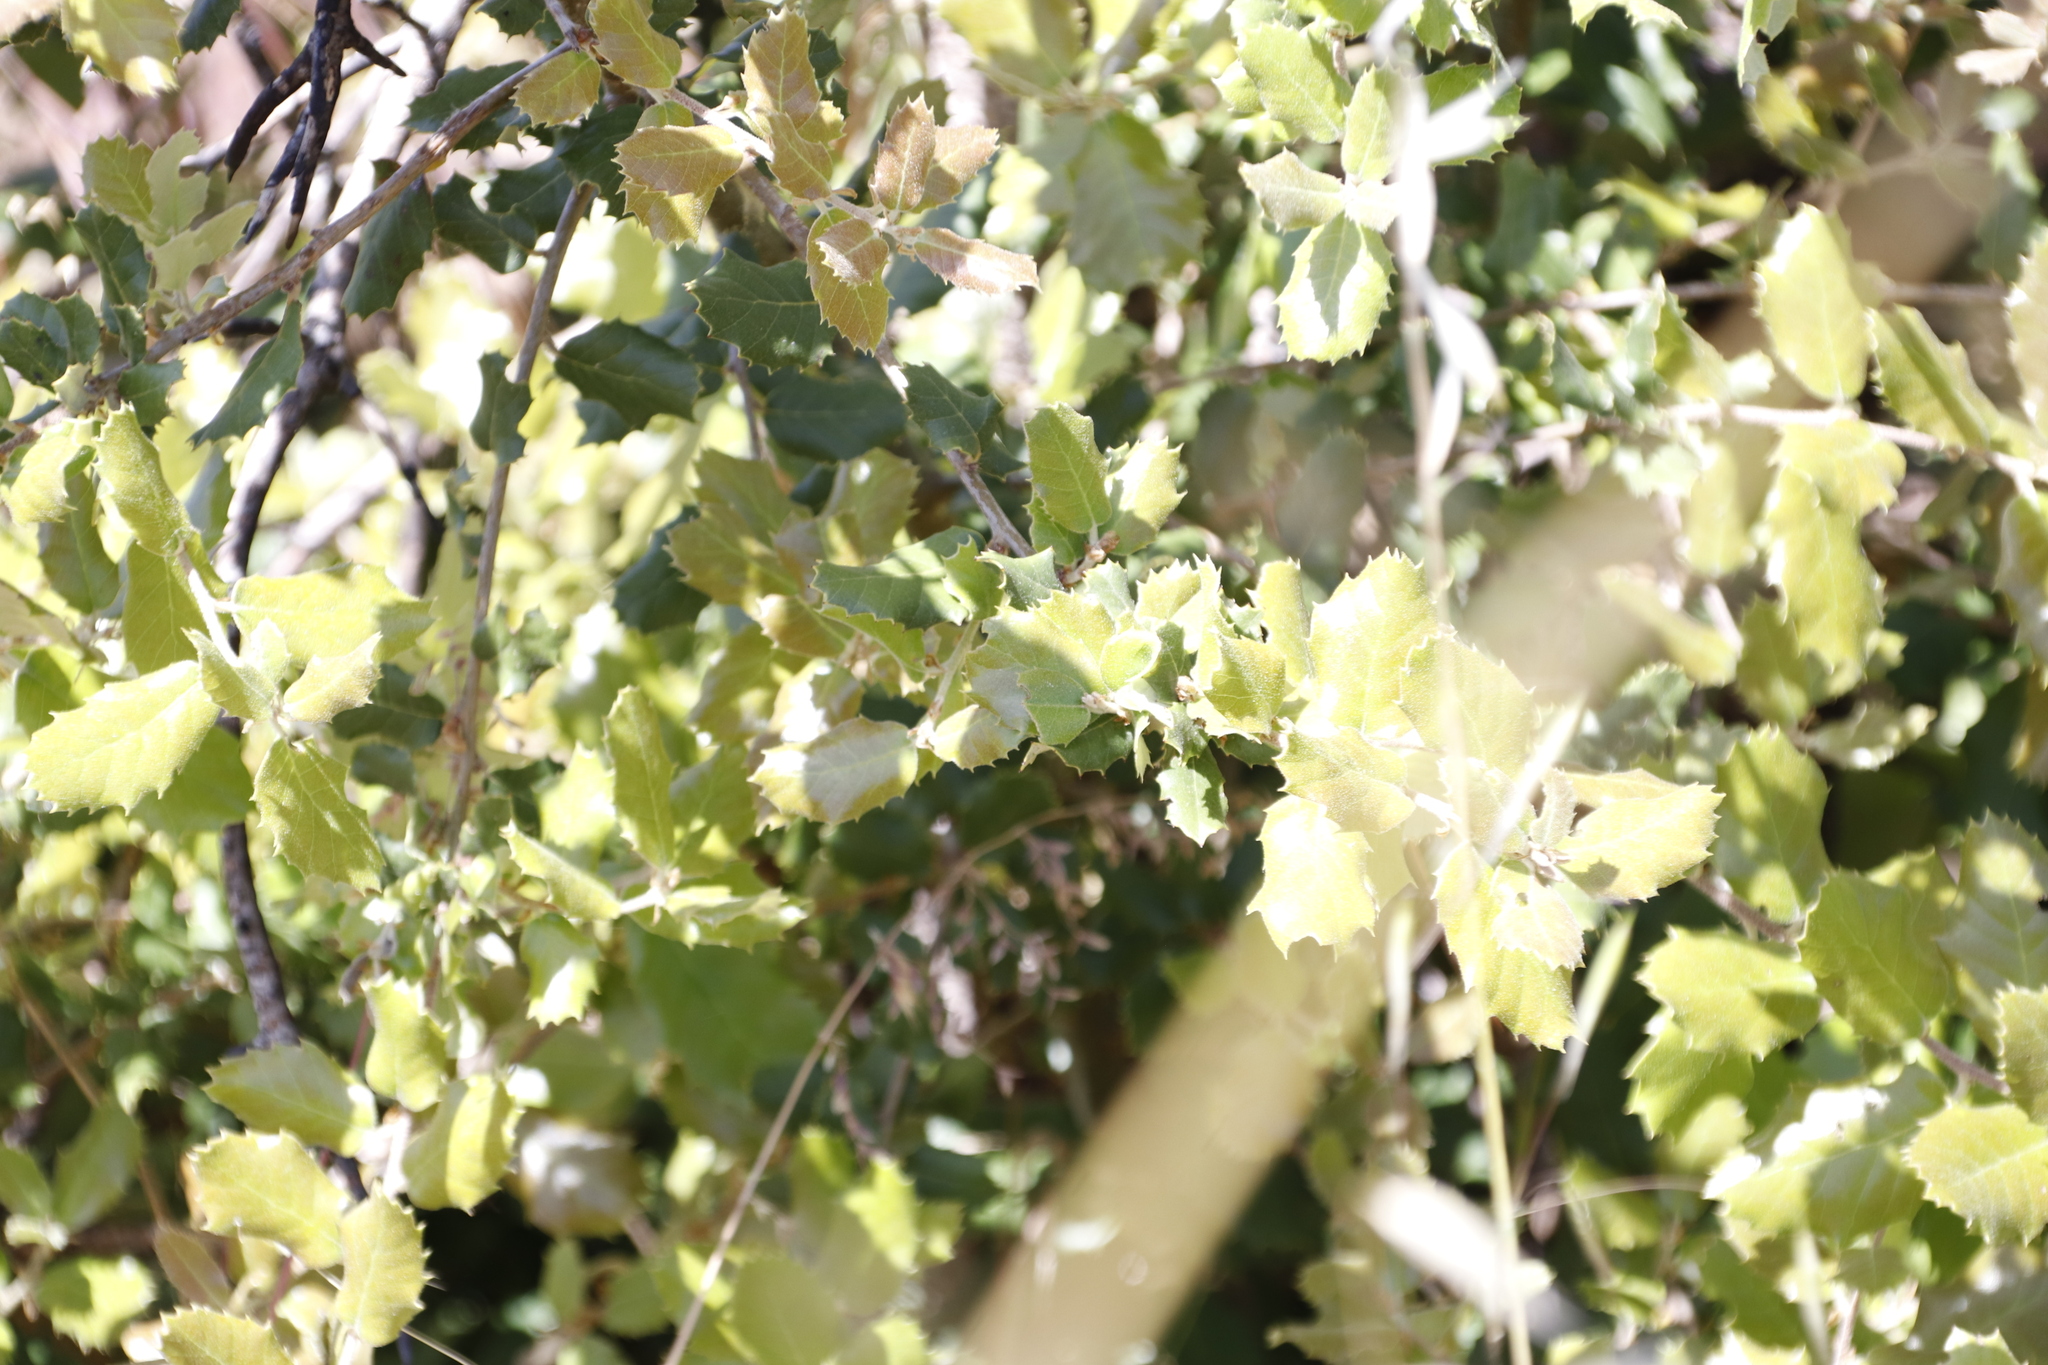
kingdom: Plantae
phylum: Tracheophyta
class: Magnoliopsida
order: Fagales
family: Fagaceae
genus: Quercus
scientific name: Quercus suber
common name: Cork oak
